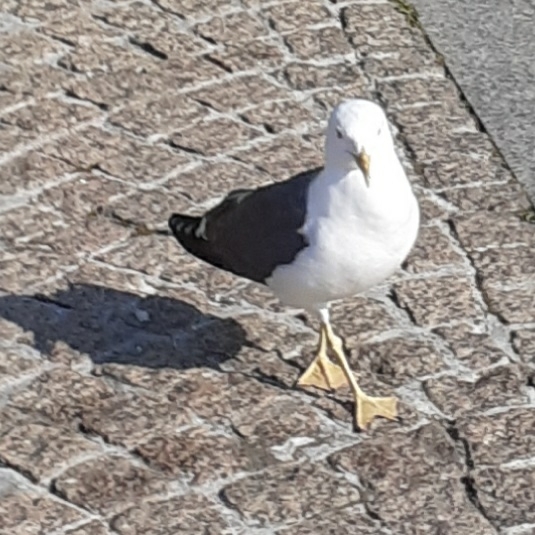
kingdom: Animalia
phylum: Chordata
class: Aves
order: Charadriiformes
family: Laridae
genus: Larus
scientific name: Larus fuscus
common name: Lesser black-backed gull
